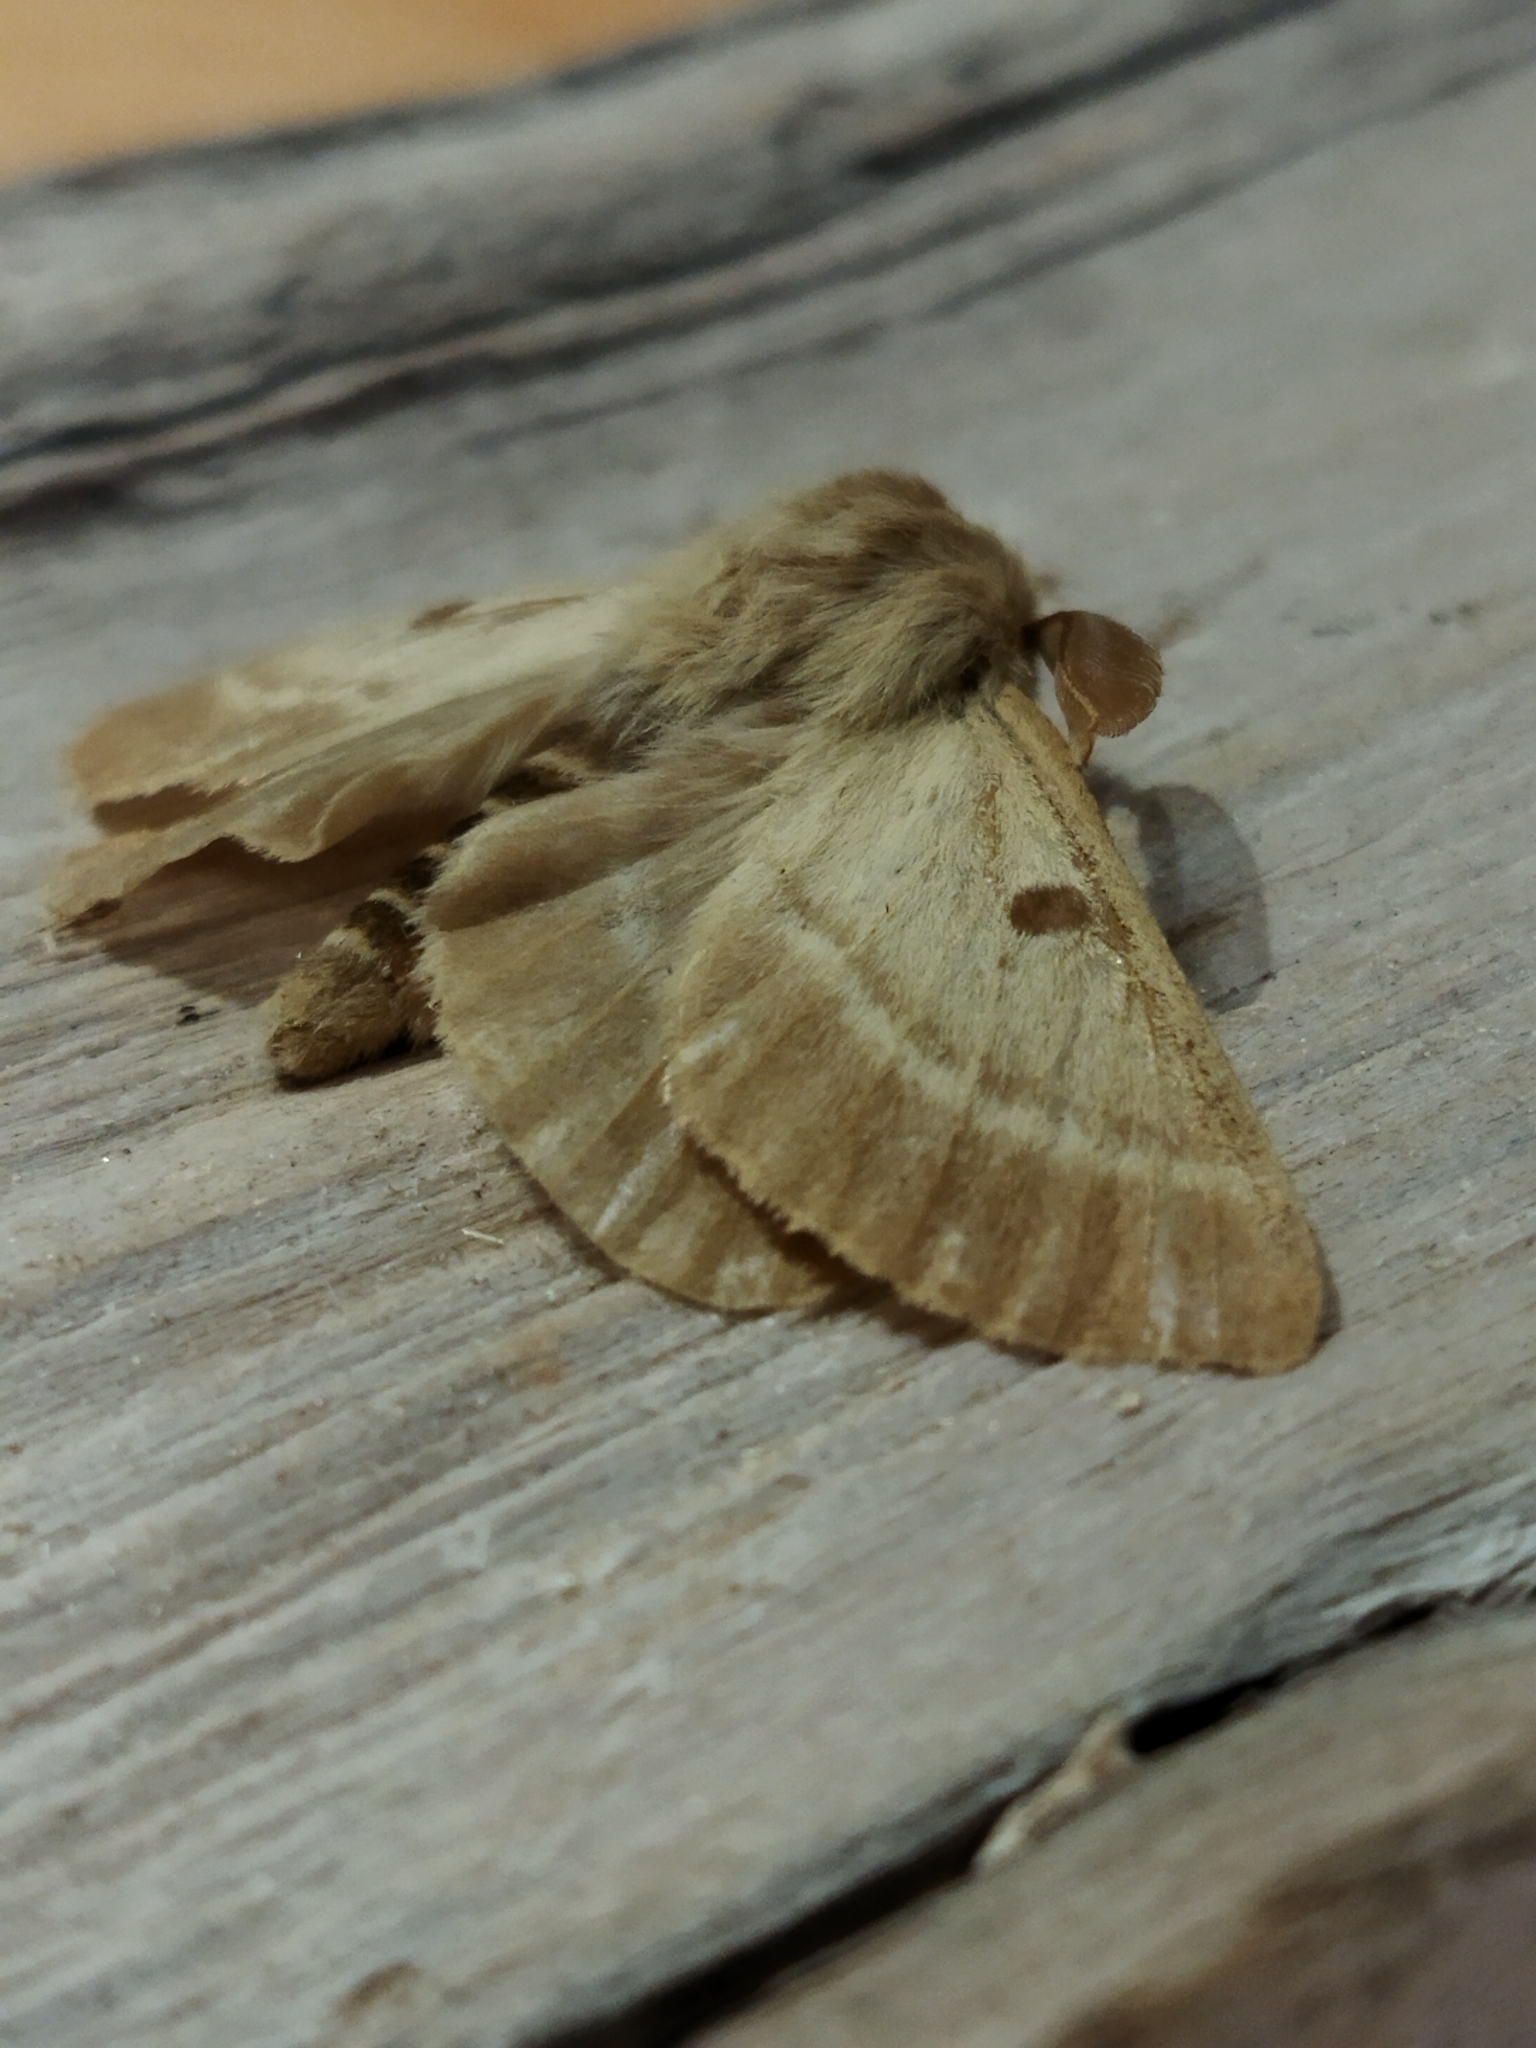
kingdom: Animalia
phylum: Arthropoda
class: Insecta
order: Lepidoptera
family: Brahmaeidae
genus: Lemonia
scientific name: Lemonia balcanica
